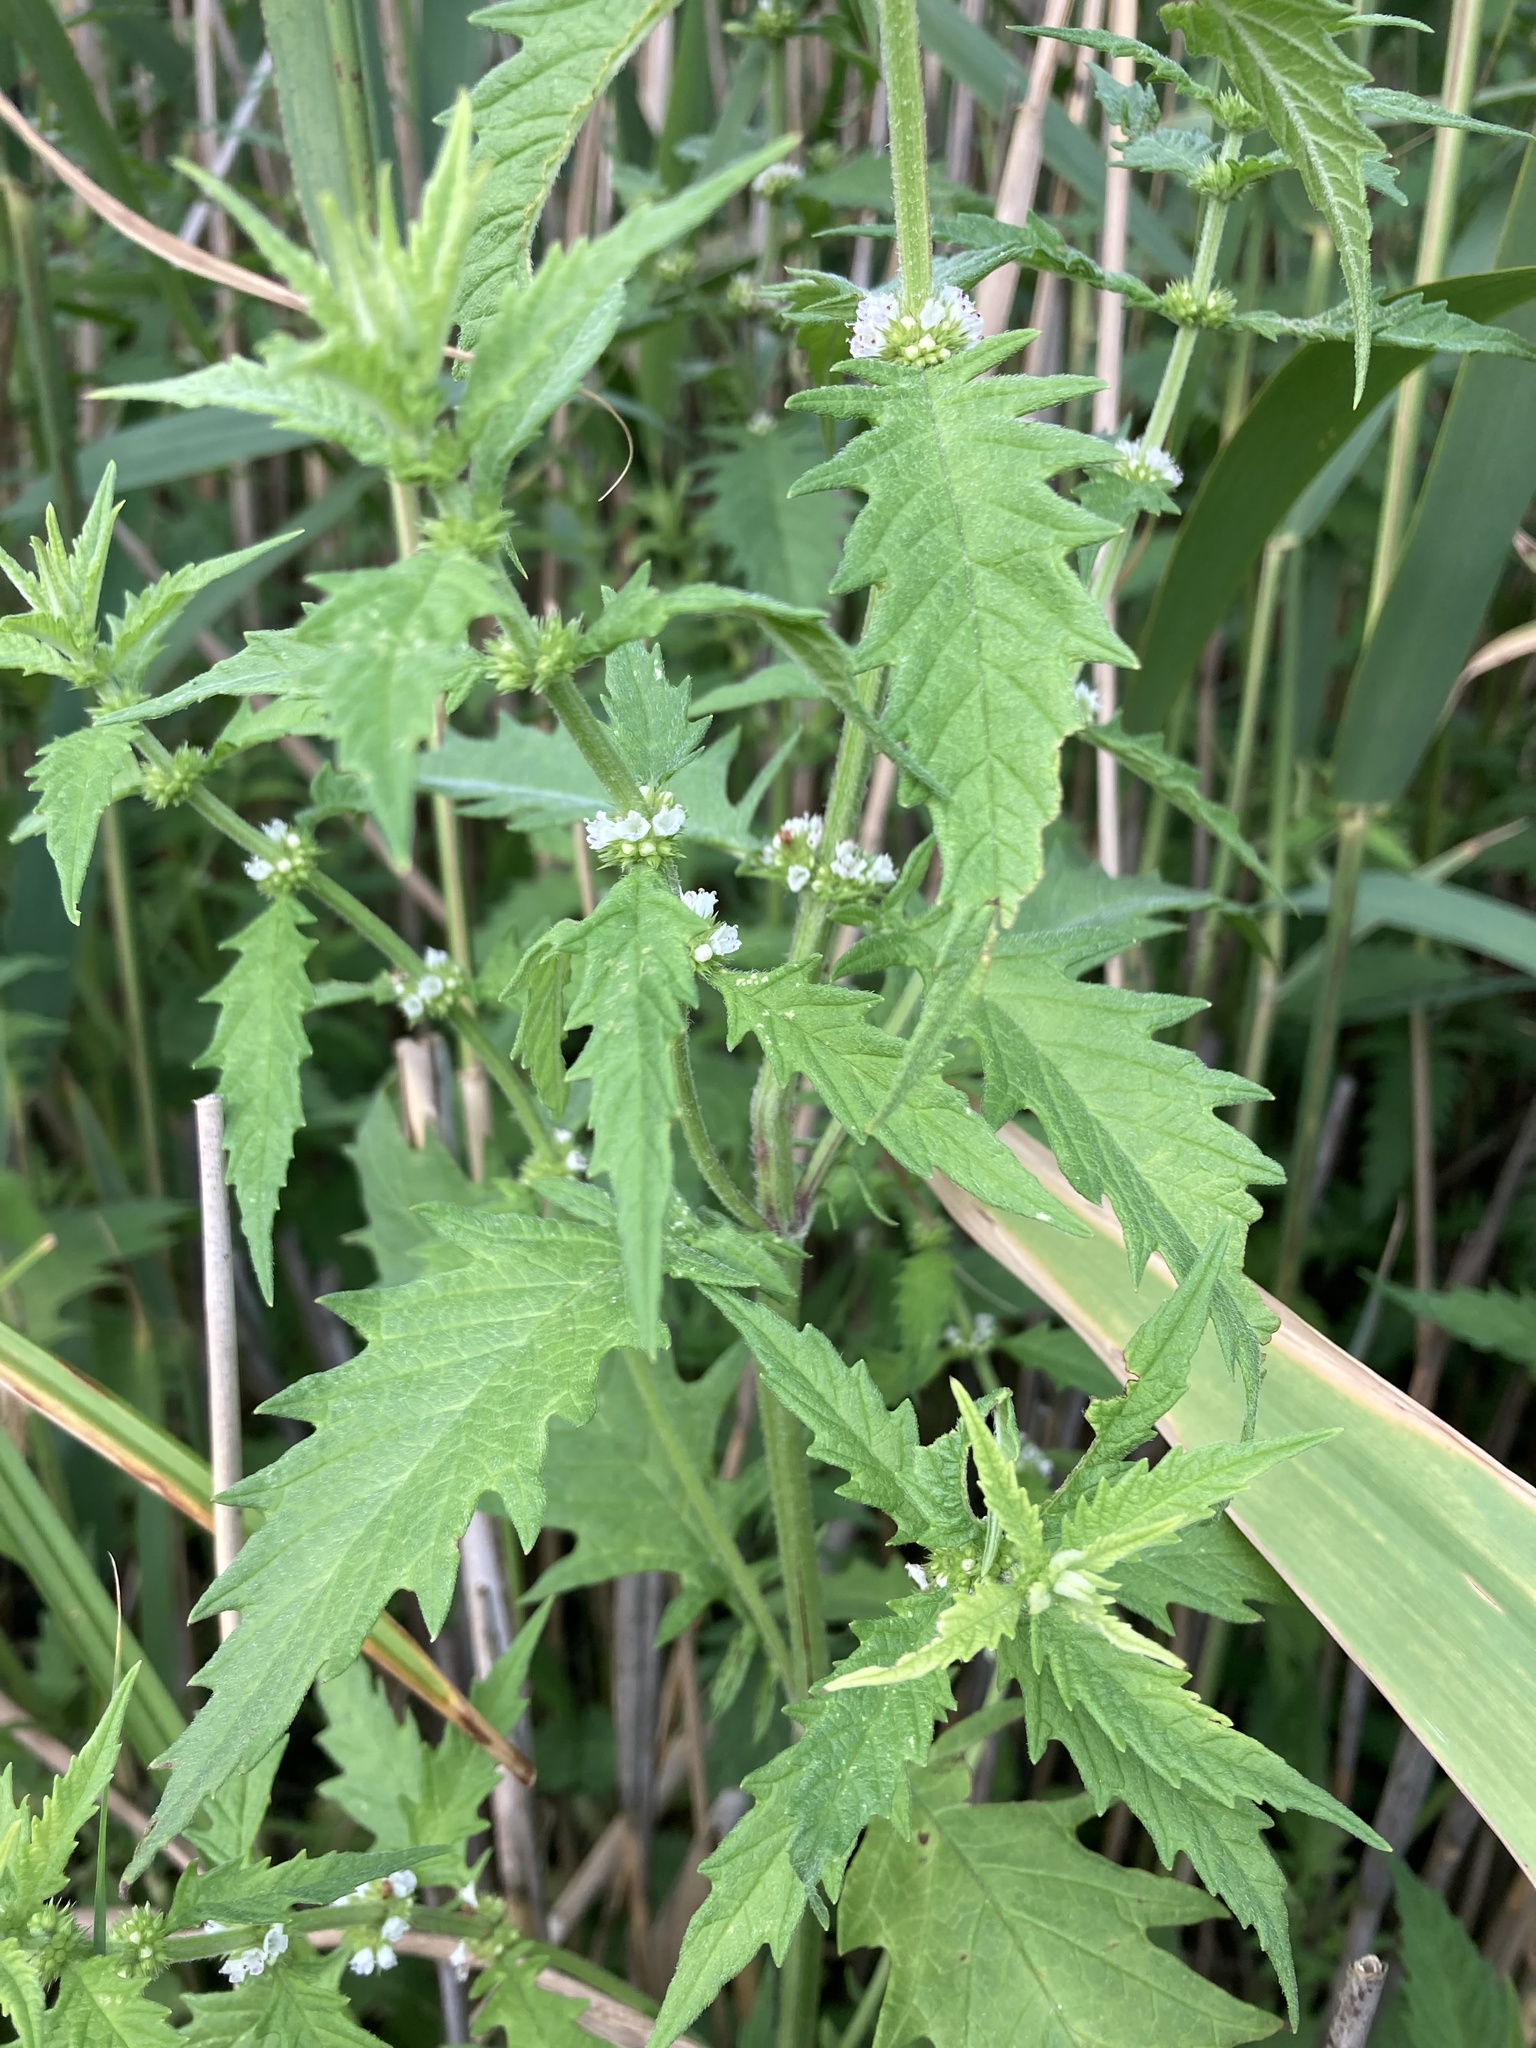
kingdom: Plantae
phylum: Tracheophyta
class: Magnoliopsida
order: Lamiales
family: Lamiaceae
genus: Lycopus
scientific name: Lycopus europaeus
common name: European bugleweed
